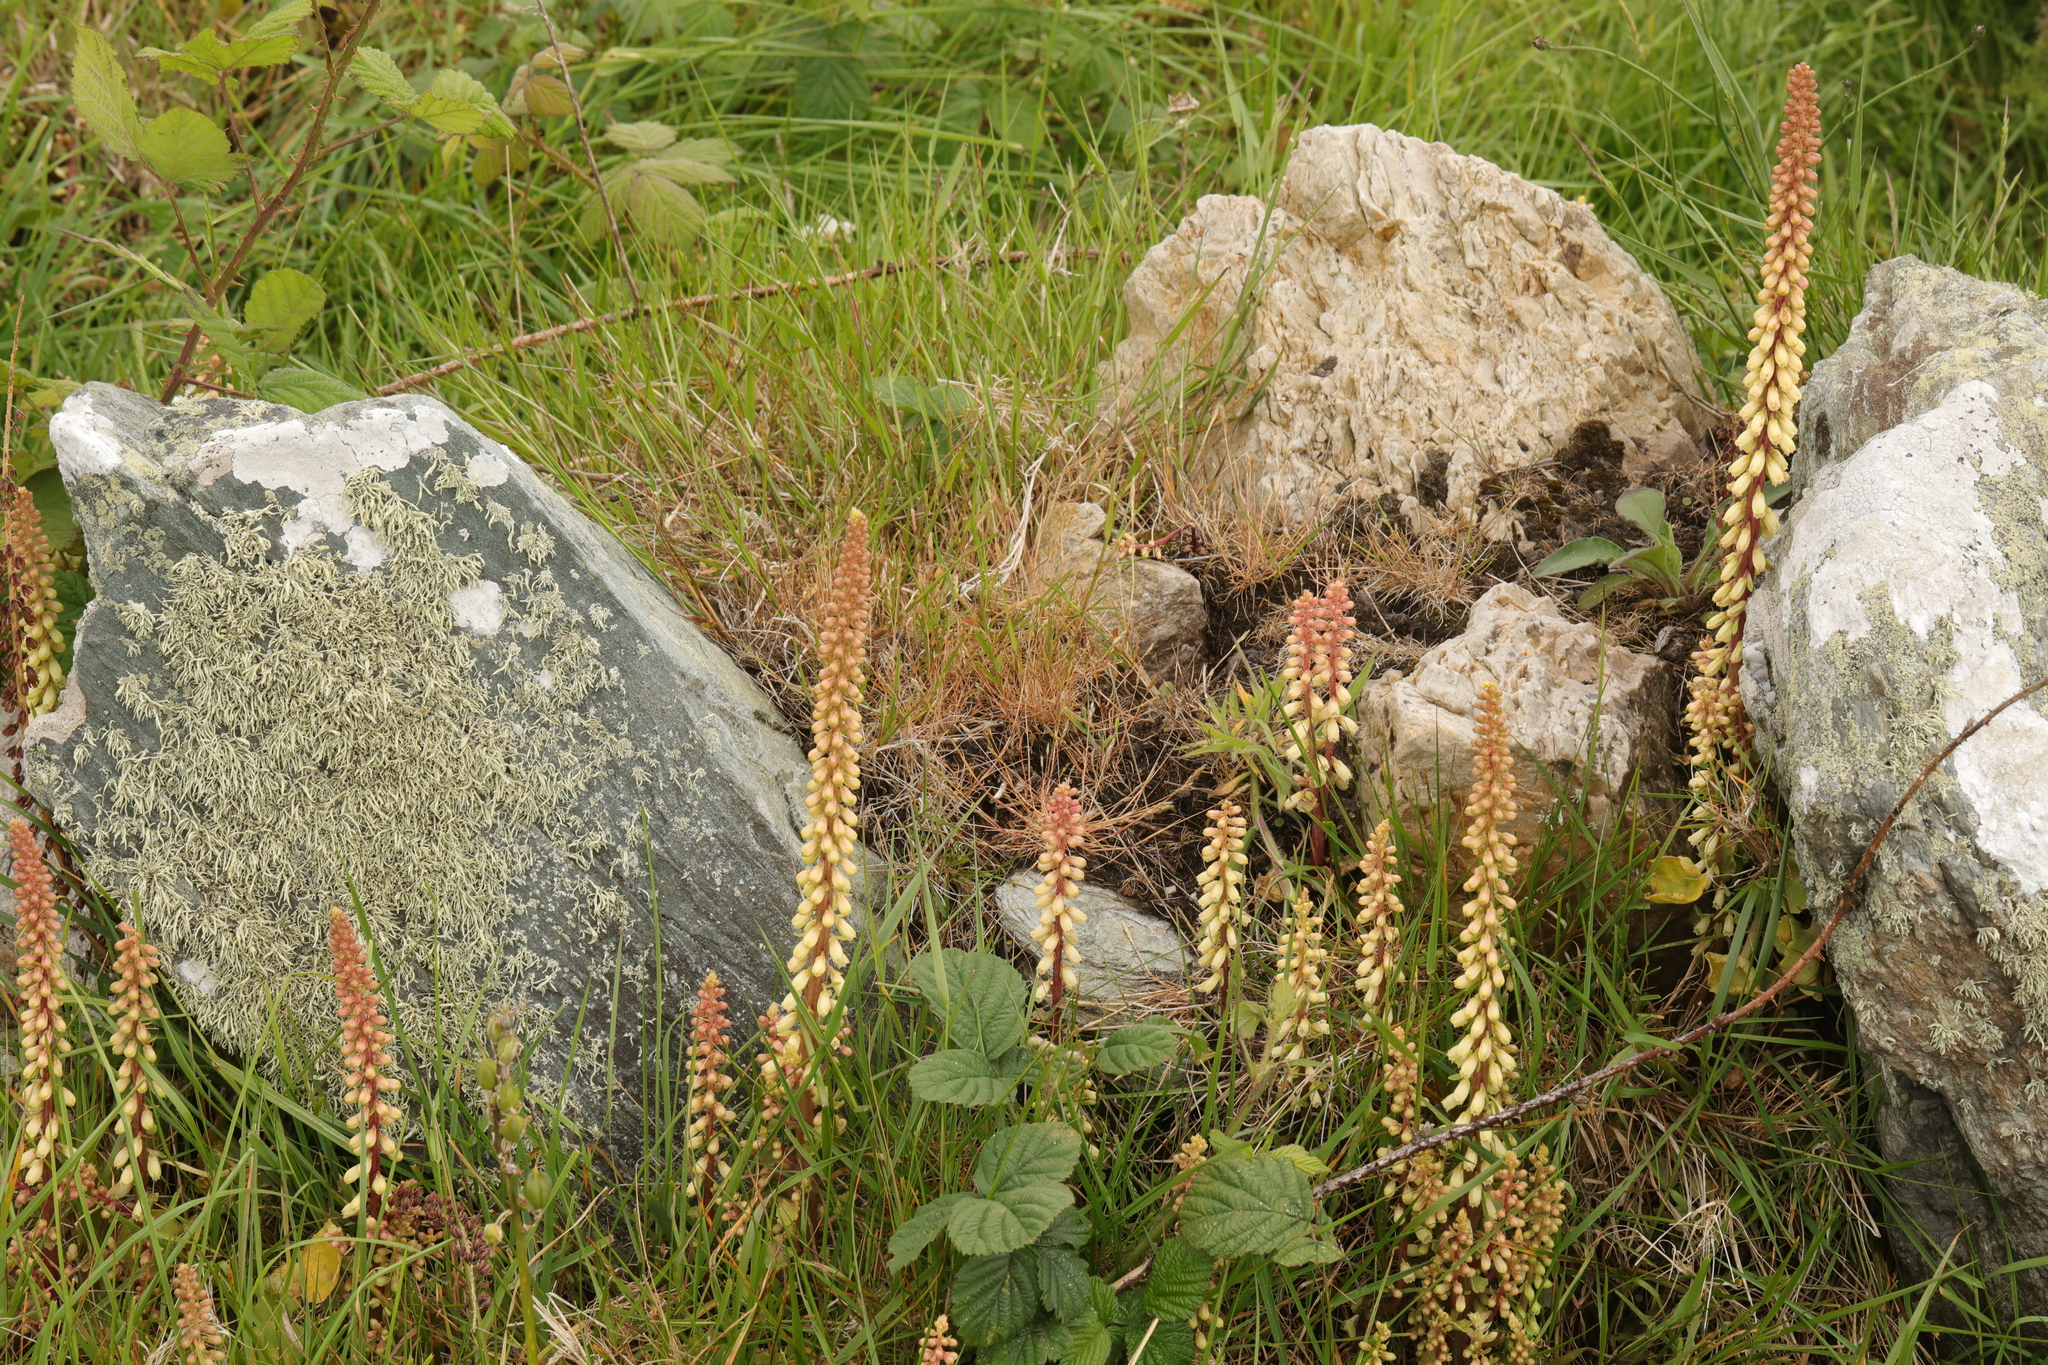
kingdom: Plantae
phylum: Tracheophyta
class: Magnoliopsida
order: Saxifragales
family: Crassulaceae
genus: Umbilicus
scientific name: Umbilicus rupestris
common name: Navelwort
